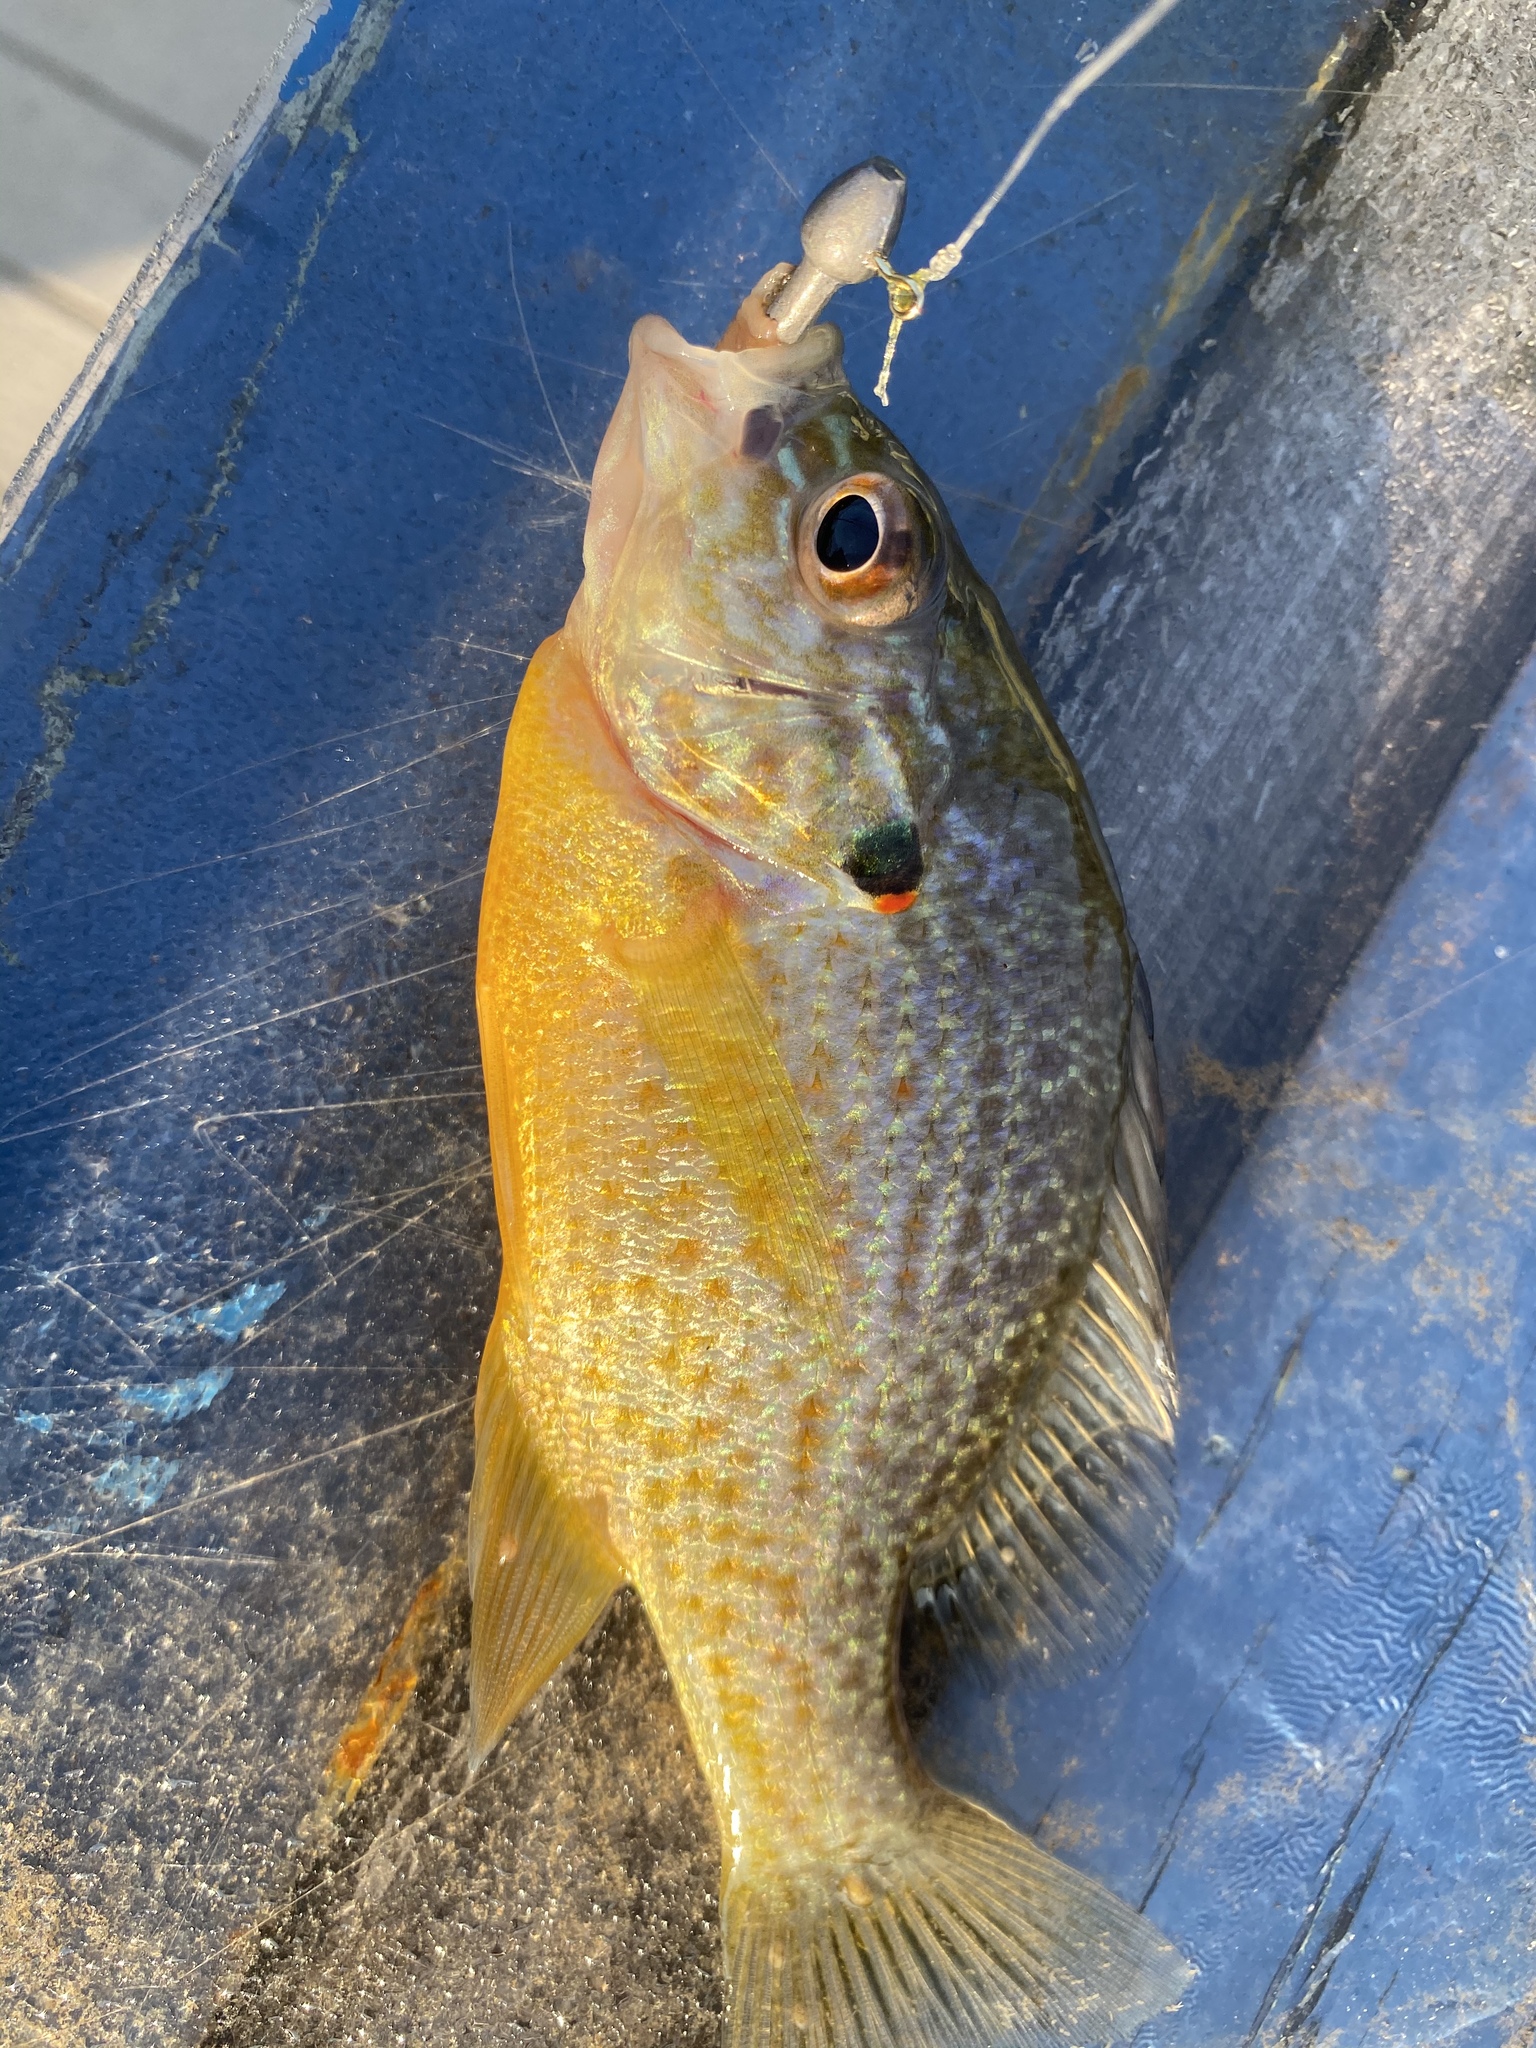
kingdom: Animalia
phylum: Chordata
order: Perciformes
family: Centrarchidae
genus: Lepomis
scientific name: Lepomis gibbosus
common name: Pumpkinseed
